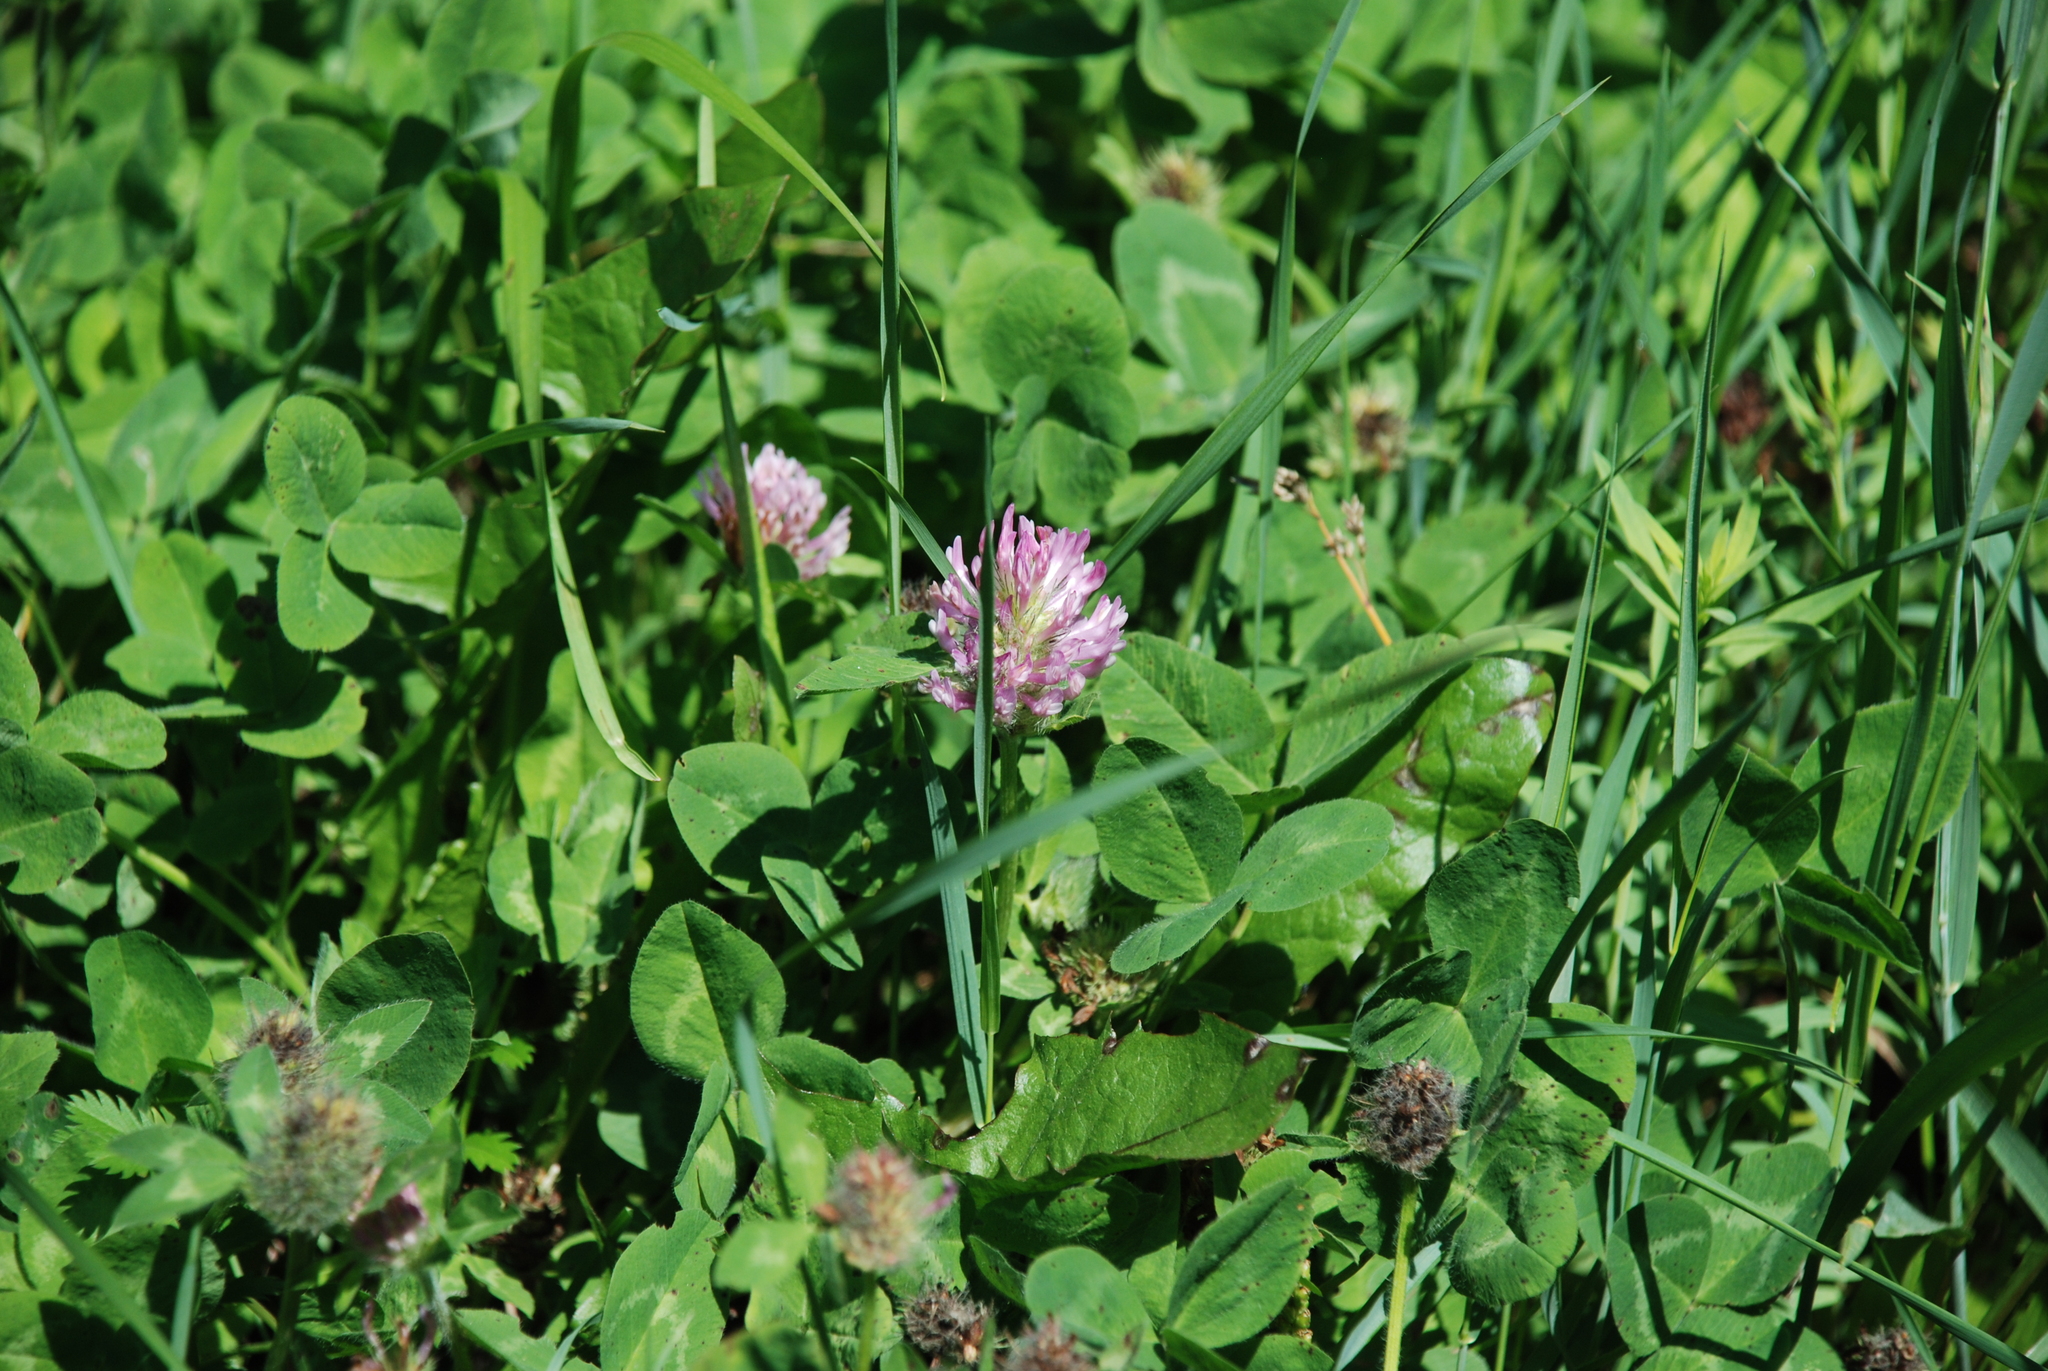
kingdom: Plantae
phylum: Tracheophyta
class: Magnoliopsida
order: Fabales
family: Fabaceae
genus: Trifolium
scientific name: Trifolium pratense
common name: Red clover
